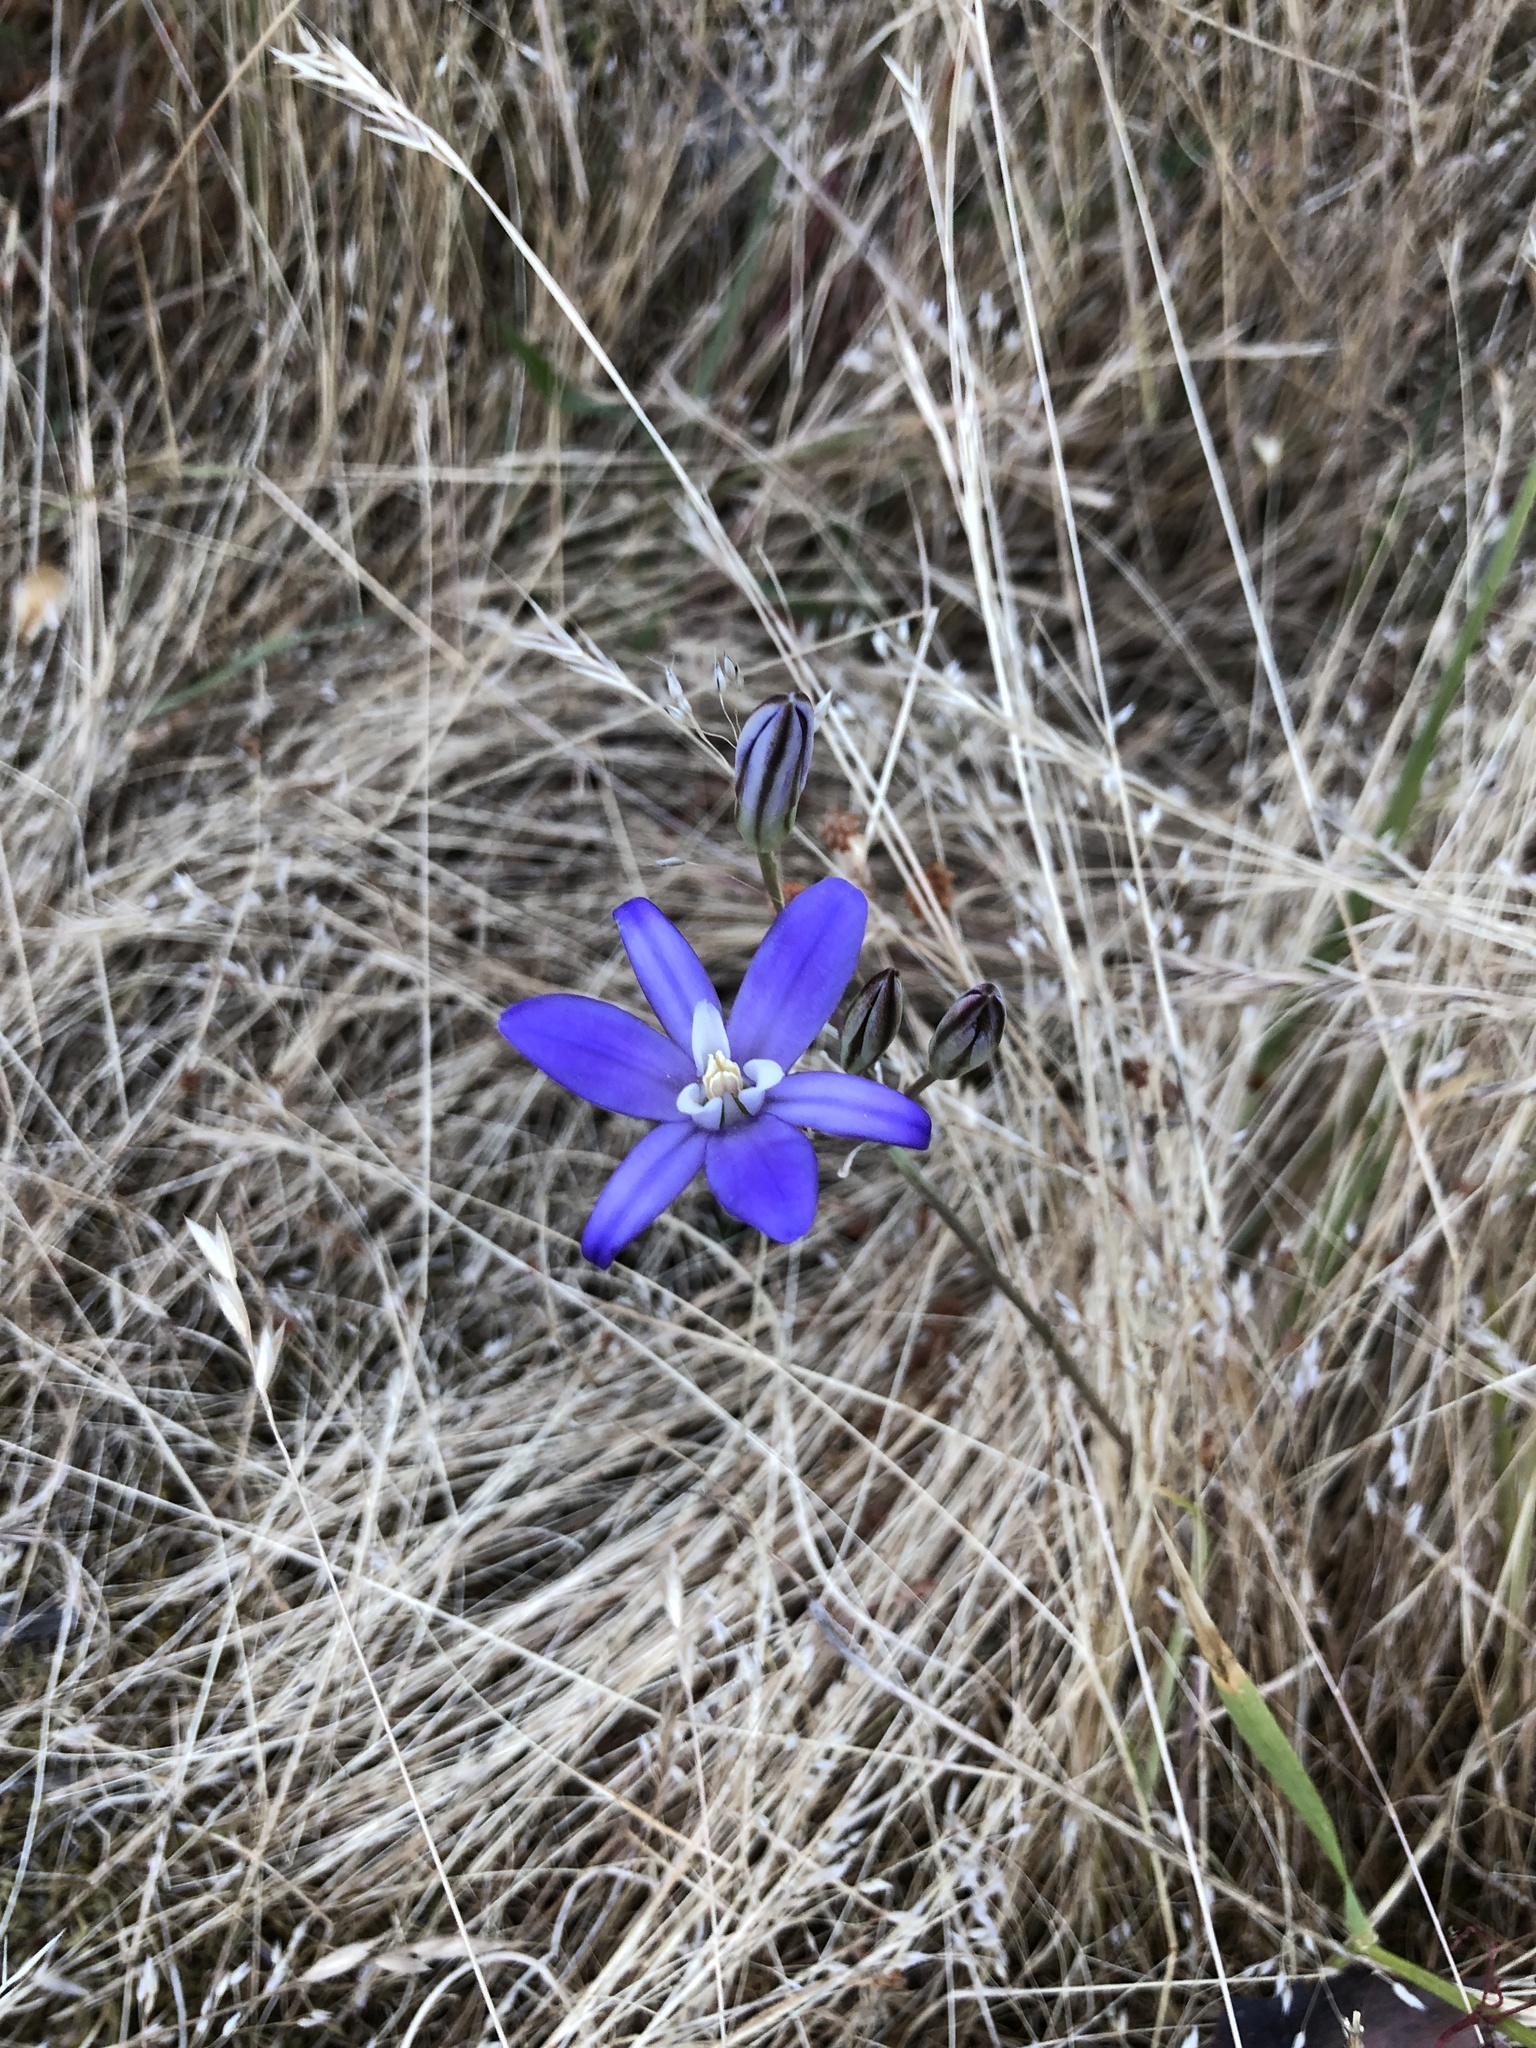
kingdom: Plantae
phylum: Tracheophyta
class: Liliopsida
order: Asparagales
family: Asparagaceae
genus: Brodiaea
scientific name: Brodiaea coronaria
